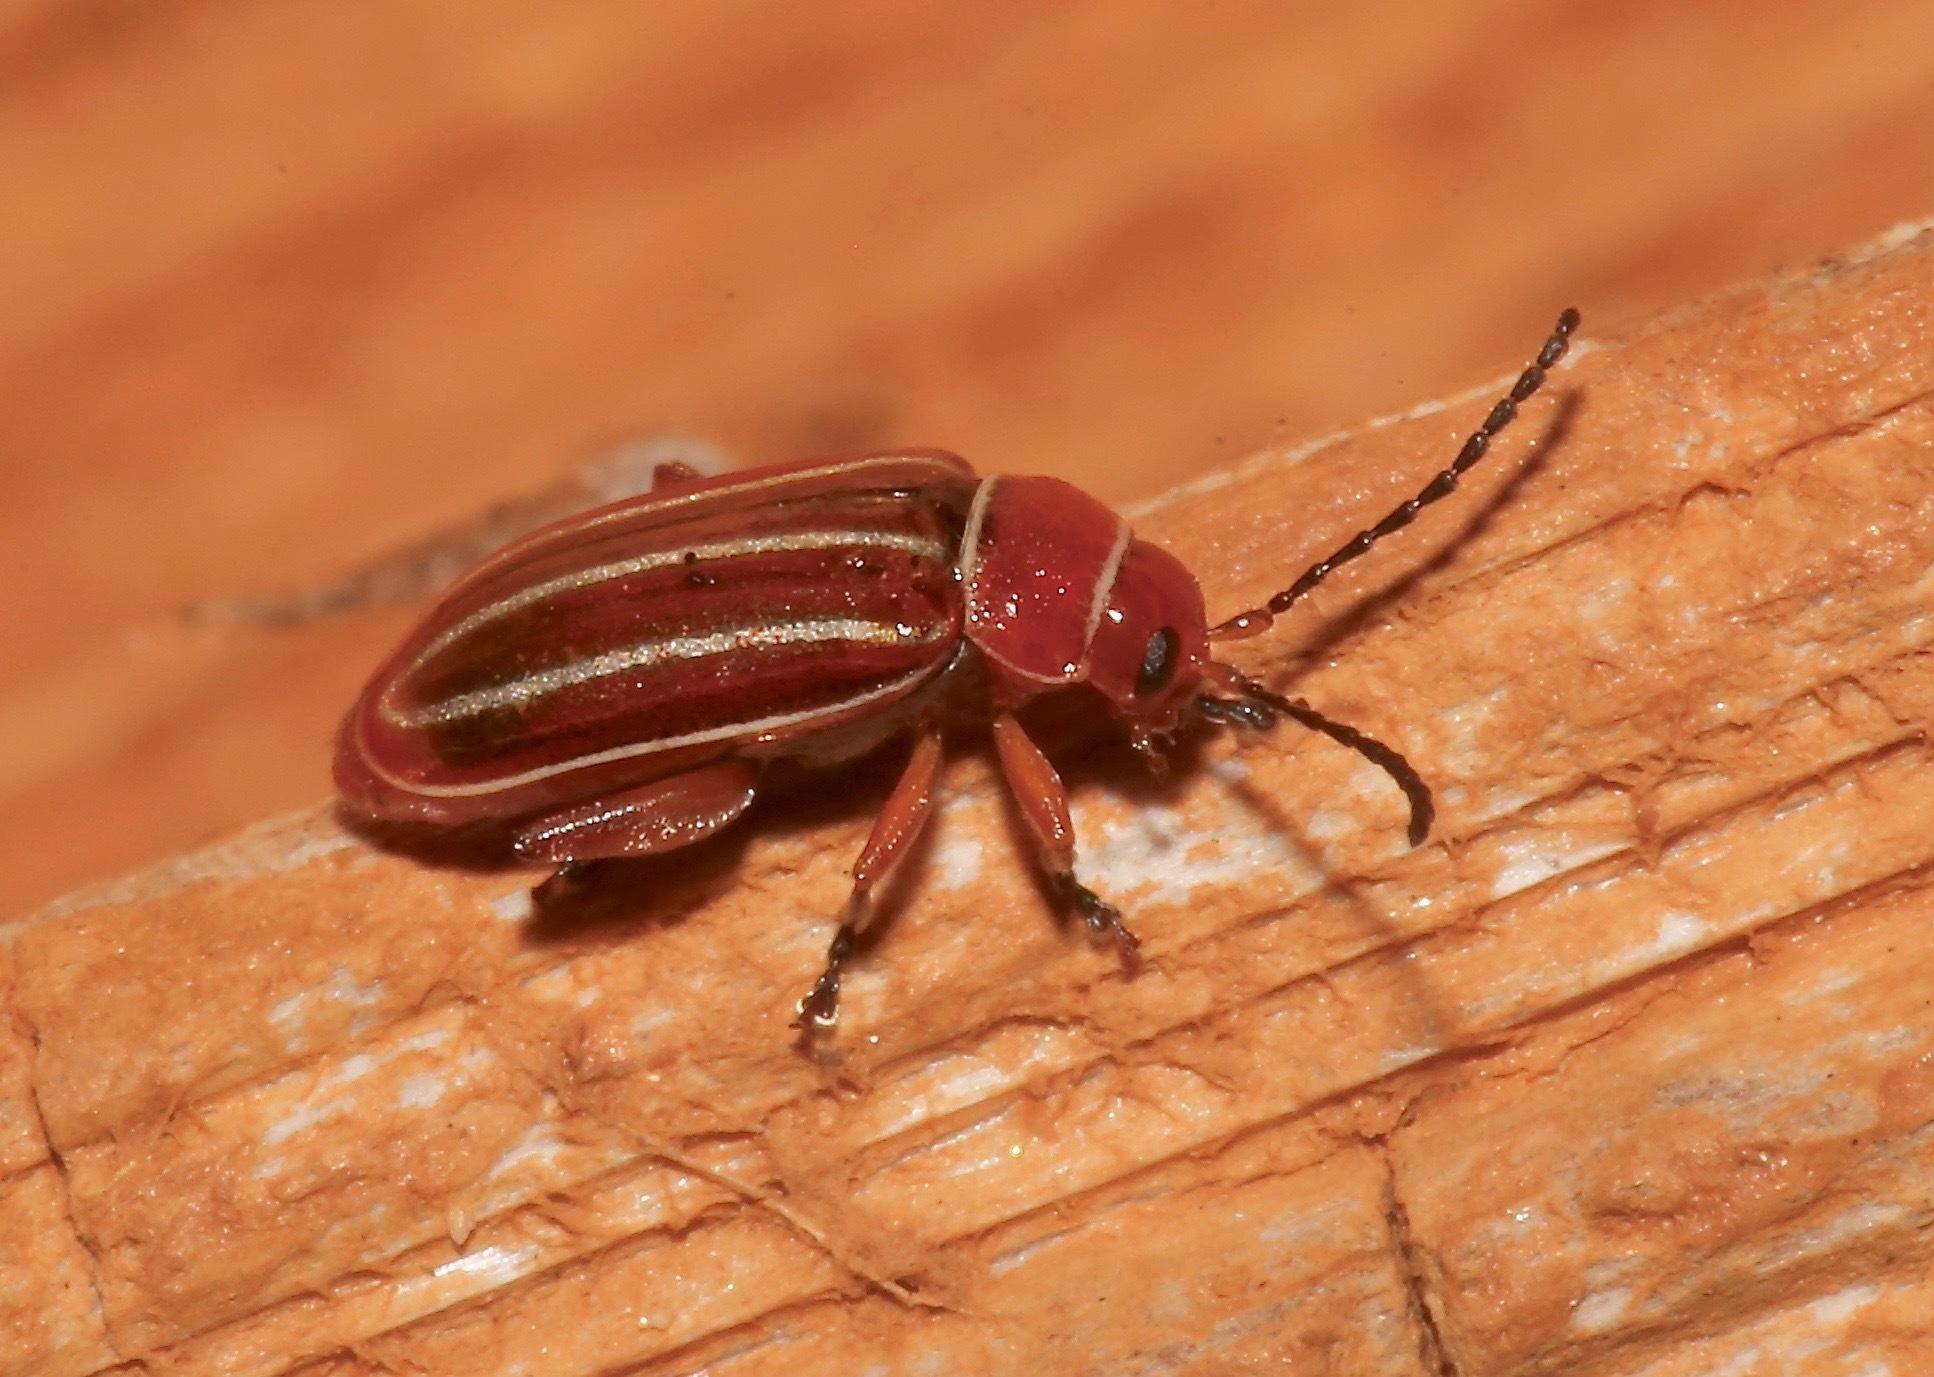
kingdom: Animalia
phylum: Arthropoda
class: Insecta
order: Coleoptera
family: Chrysomelidae
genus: Disonycha
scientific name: Disonycha conjugata
